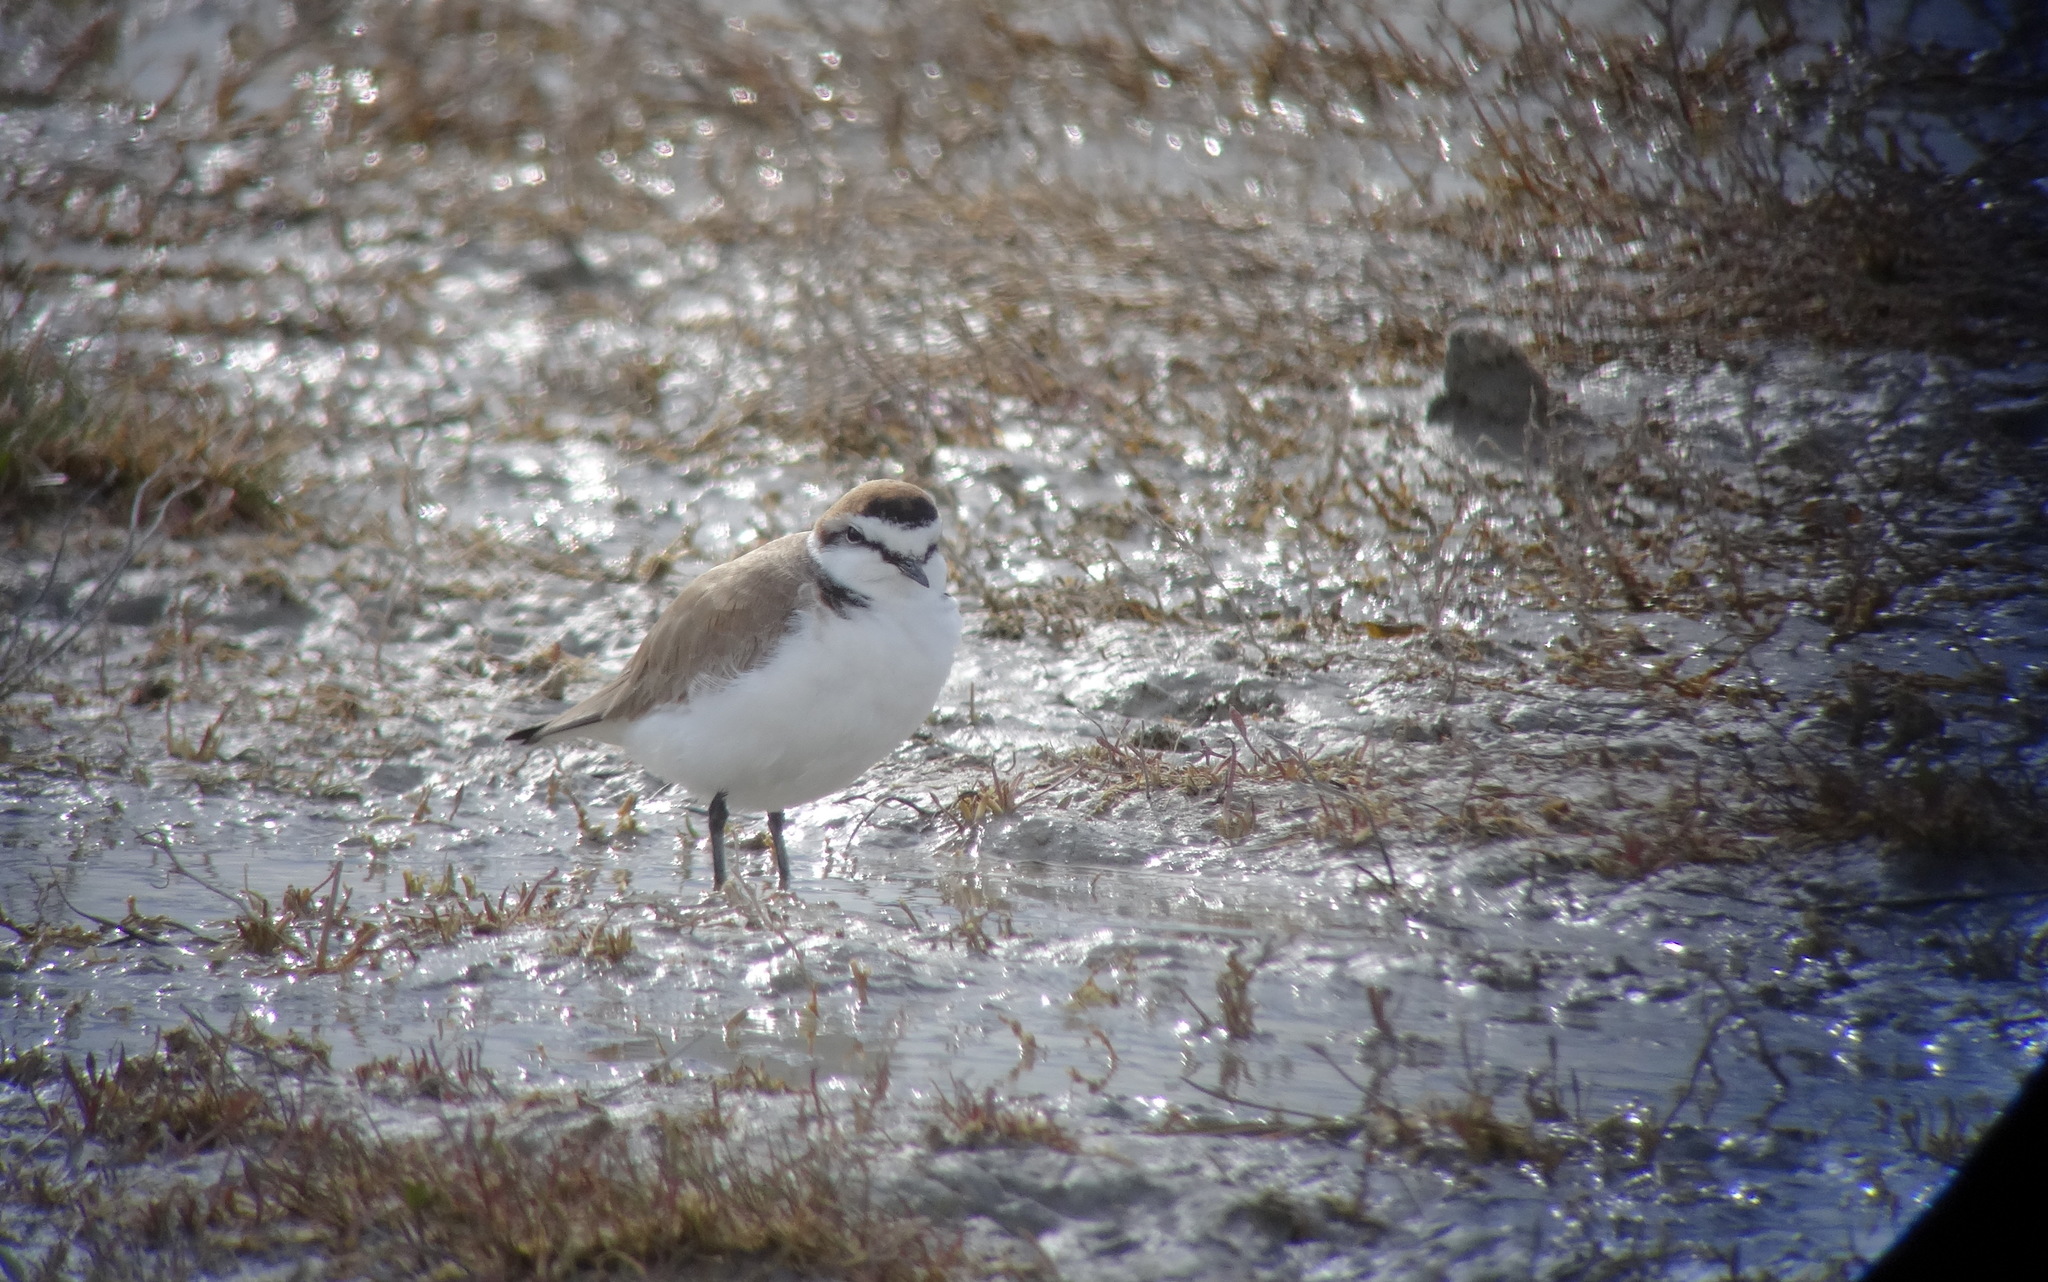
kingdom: Animalia
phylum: Chordata
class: Aves
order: Charadriiformes
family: Charadriidae
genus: Charadrius
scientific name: Charadrius alexandrinus
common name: Kentish plover
